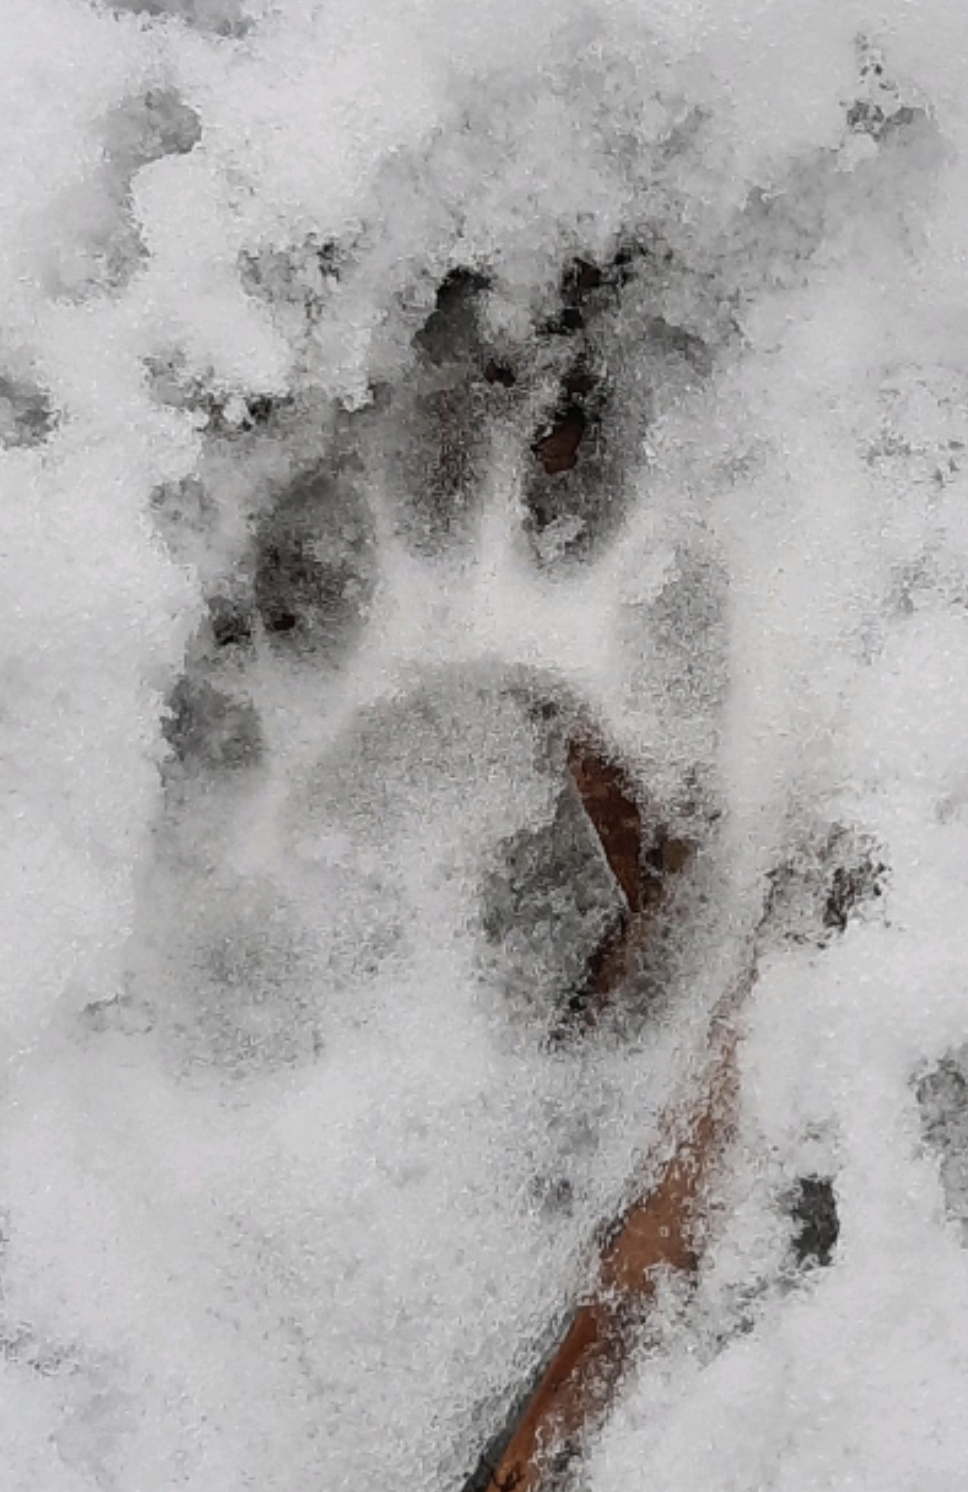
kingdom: Animalia
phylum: Chordata
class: Mammalia
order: Carnivora
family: Procyonidae
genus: Procyon
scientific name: Procyon lotor
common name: Raccoon
